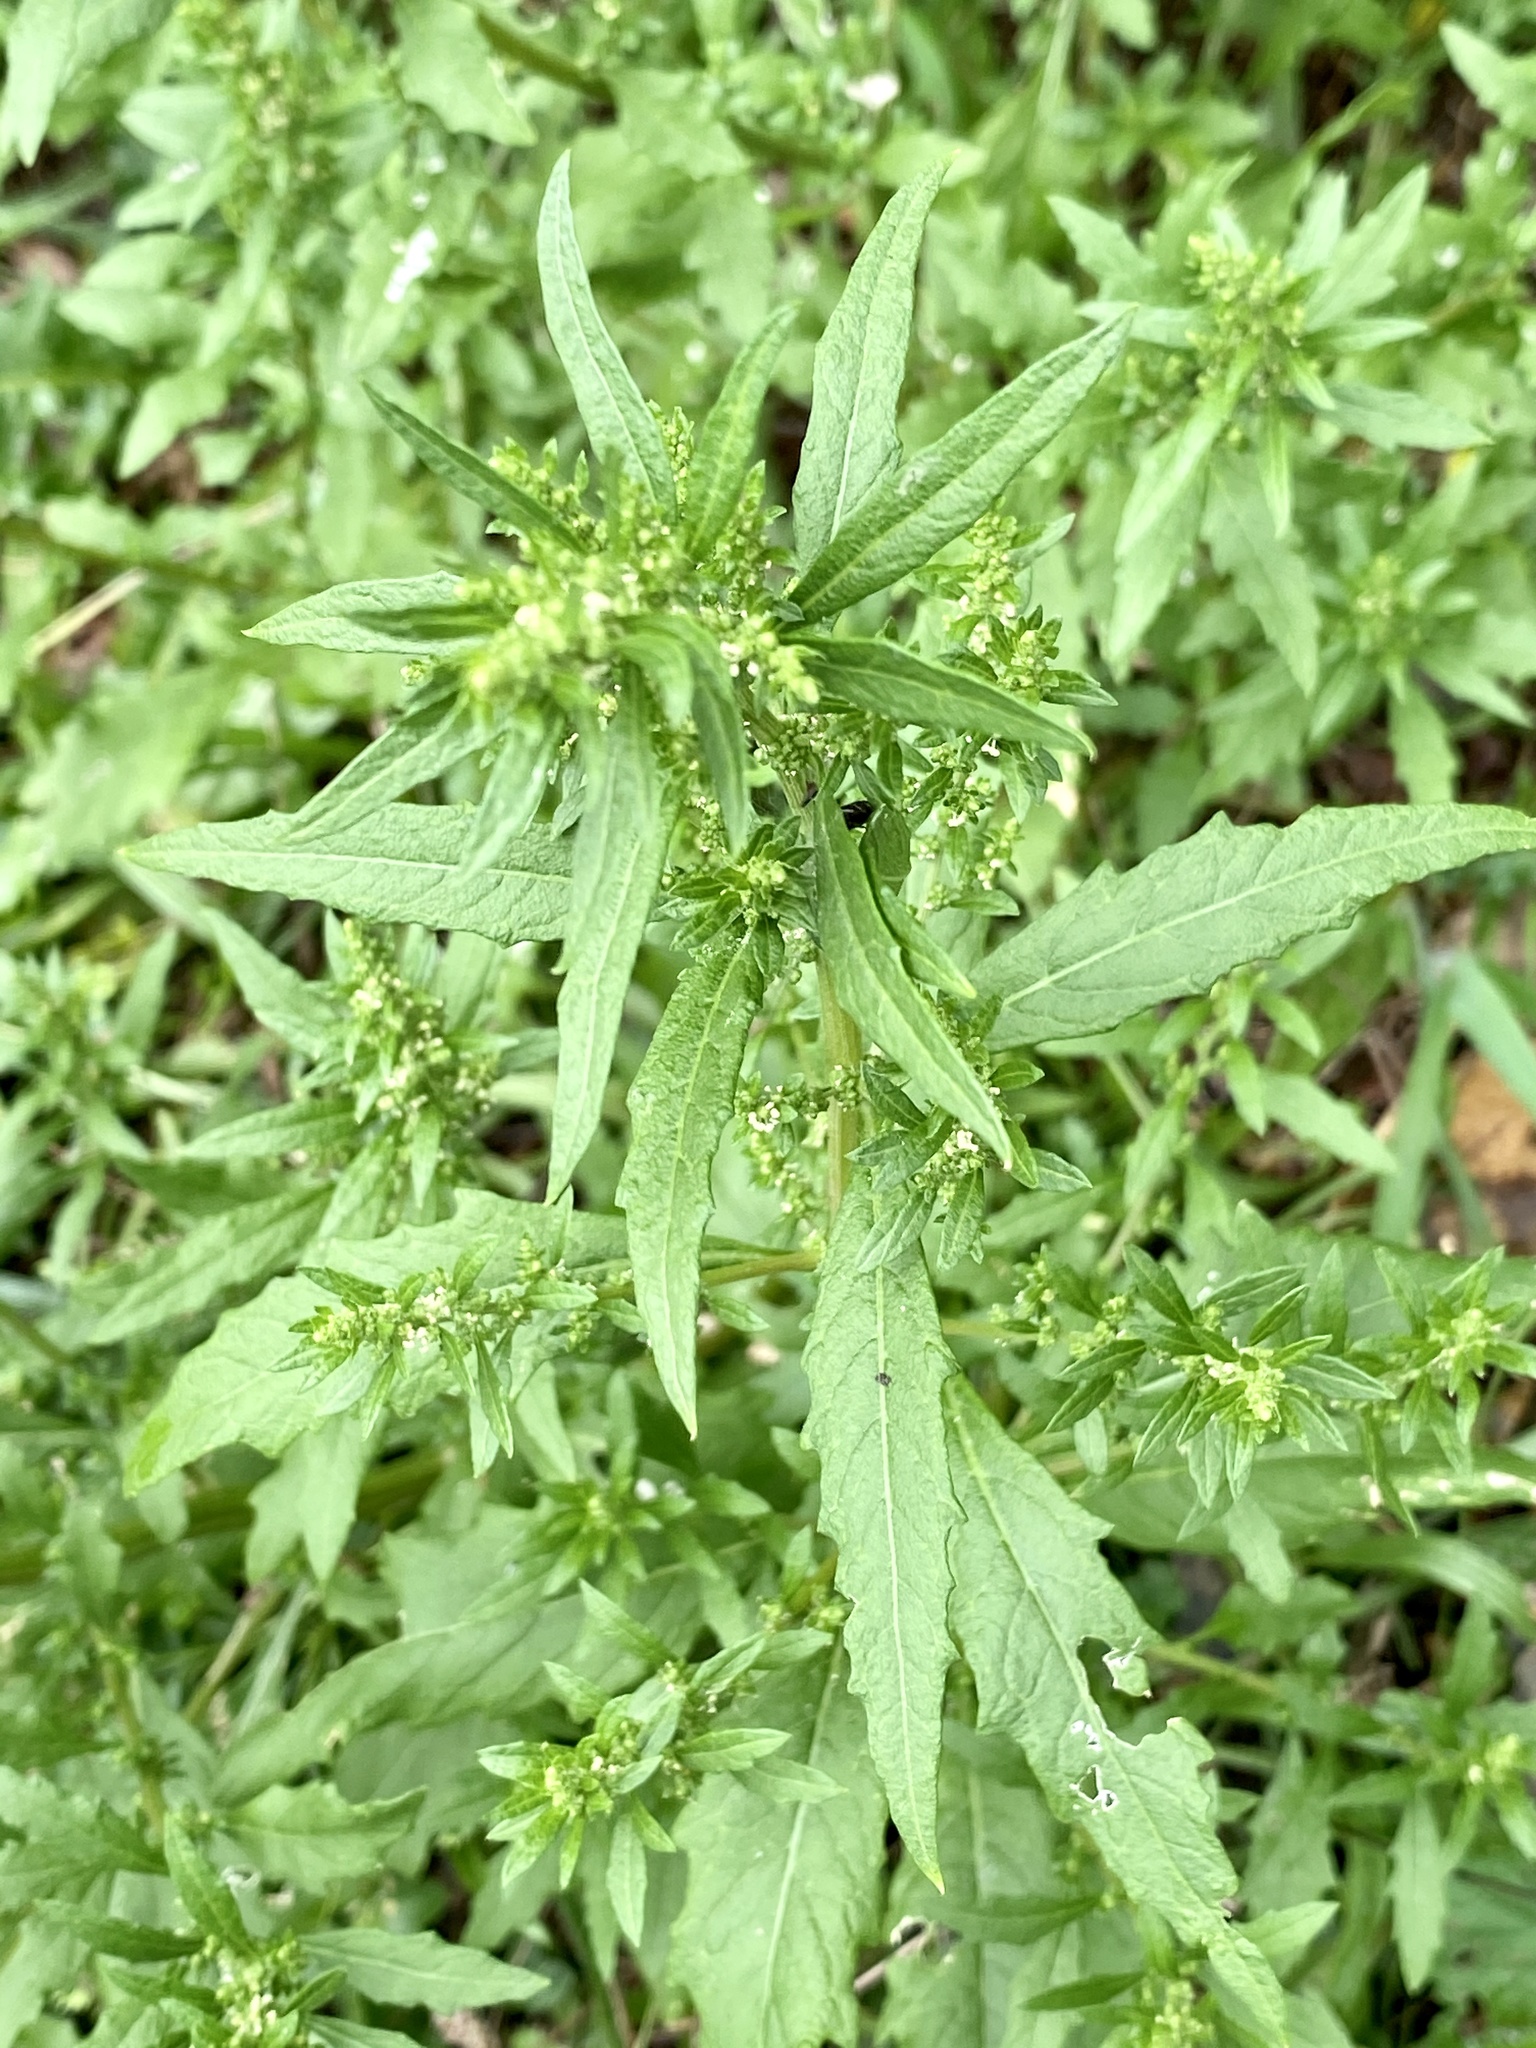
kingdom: Plantae
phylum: Tracheophyta
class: Magnoliopsida
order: Caryophyllales
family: Amaranthaceae
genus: Dysphania
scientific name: Dysphania ambrosioides
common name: Wormseed
